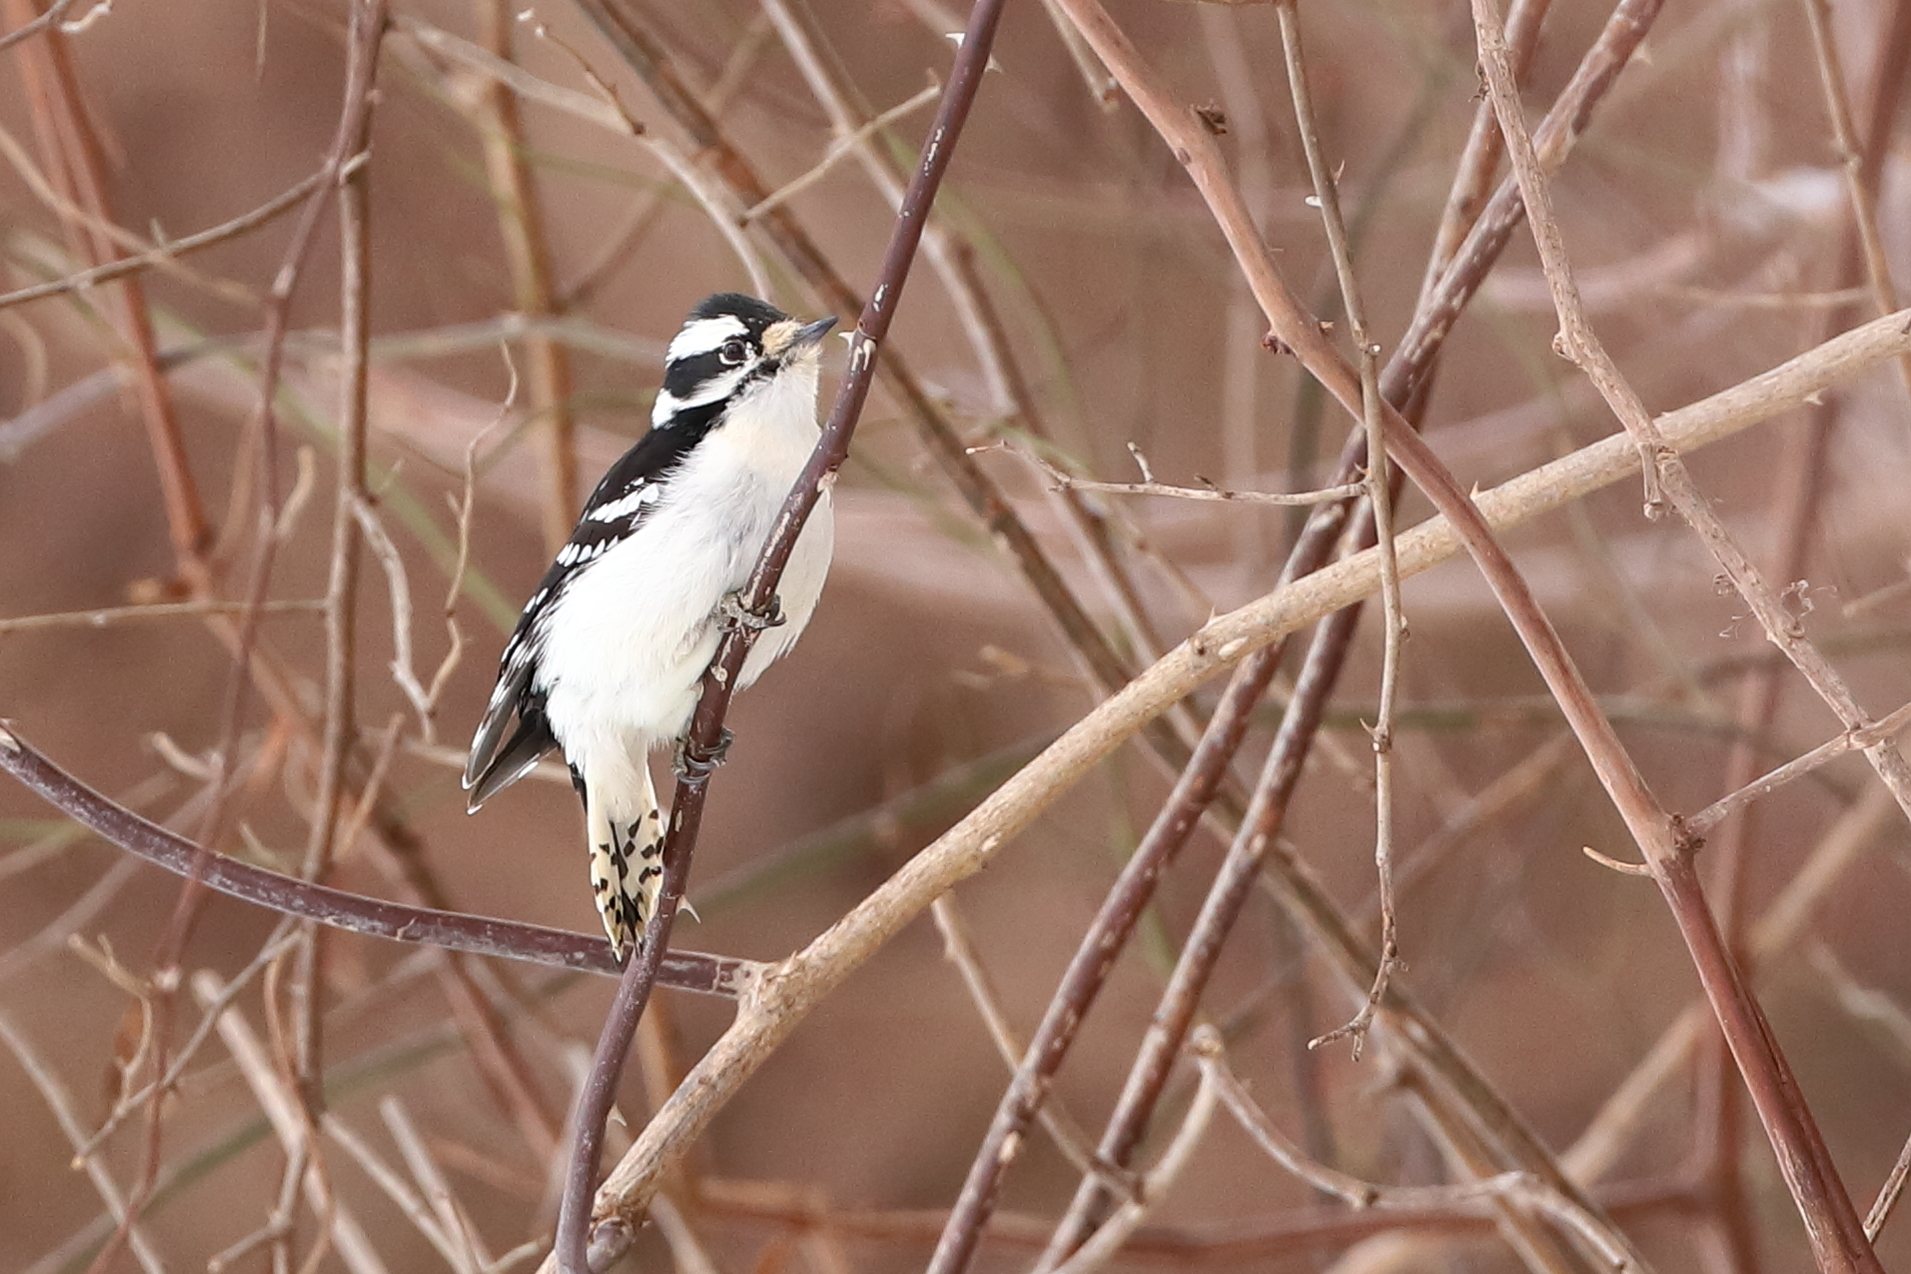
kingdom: Animalia
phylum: Chordata
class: Aves
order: Piciformes
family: Picidae
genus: Dryobates
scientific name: Dryobates pubescens
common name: Downy woodpecker
